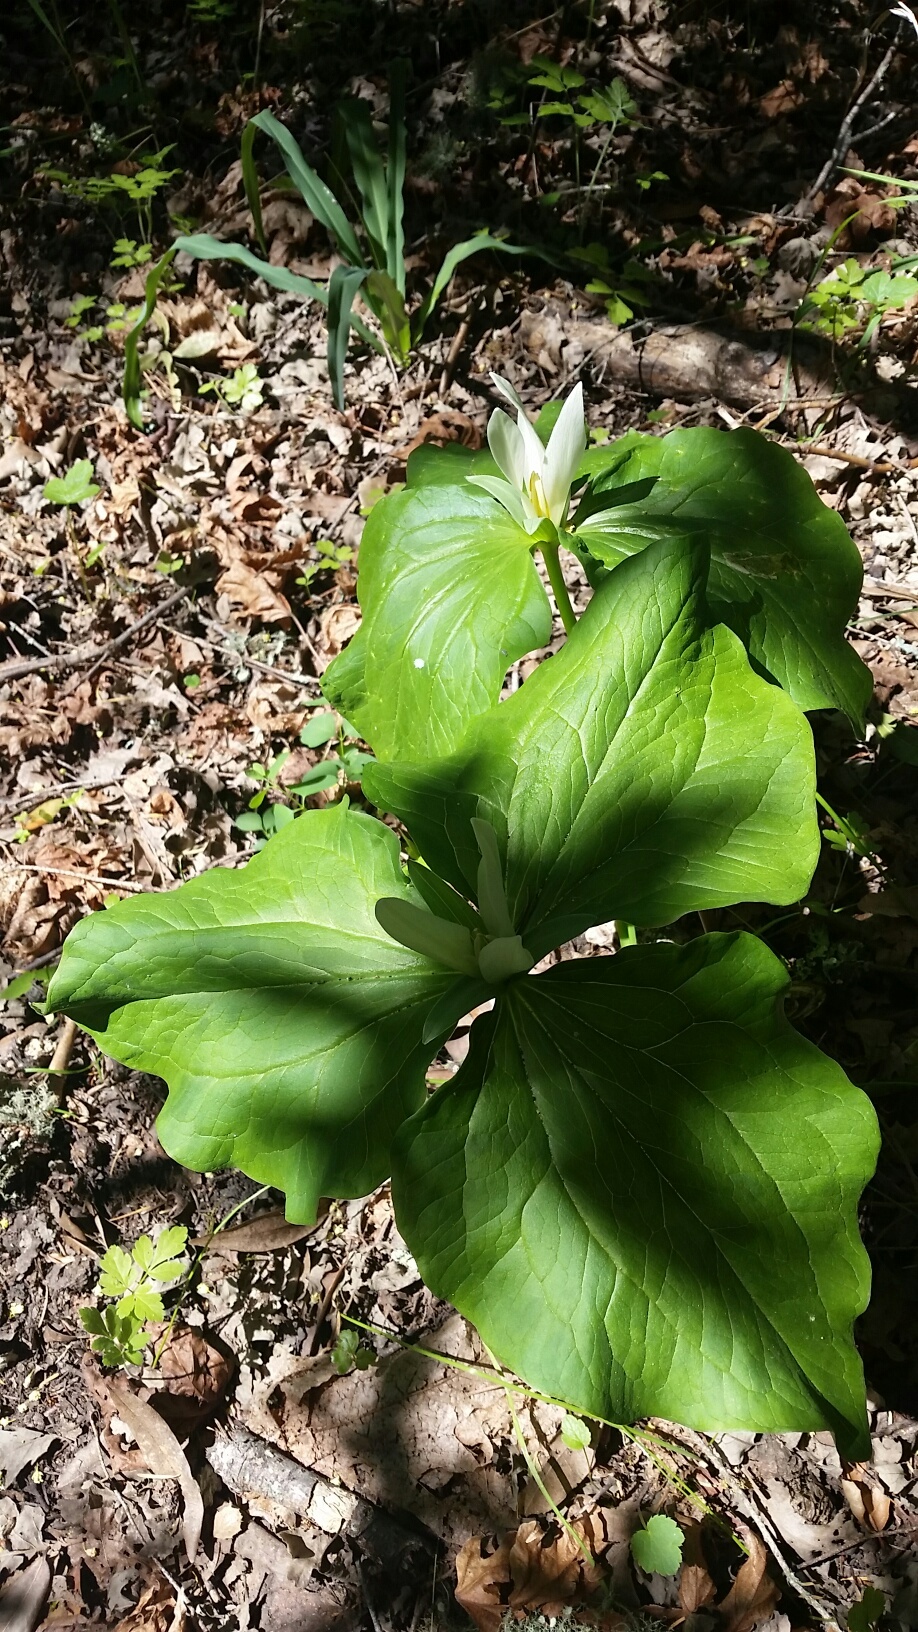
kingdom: Plantae
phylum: Tracheophyta
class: Liliopsida
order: Liliales
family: Melanthiaceae
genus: Trillium
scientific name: Trillium albidum
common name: Freeman's trillium
